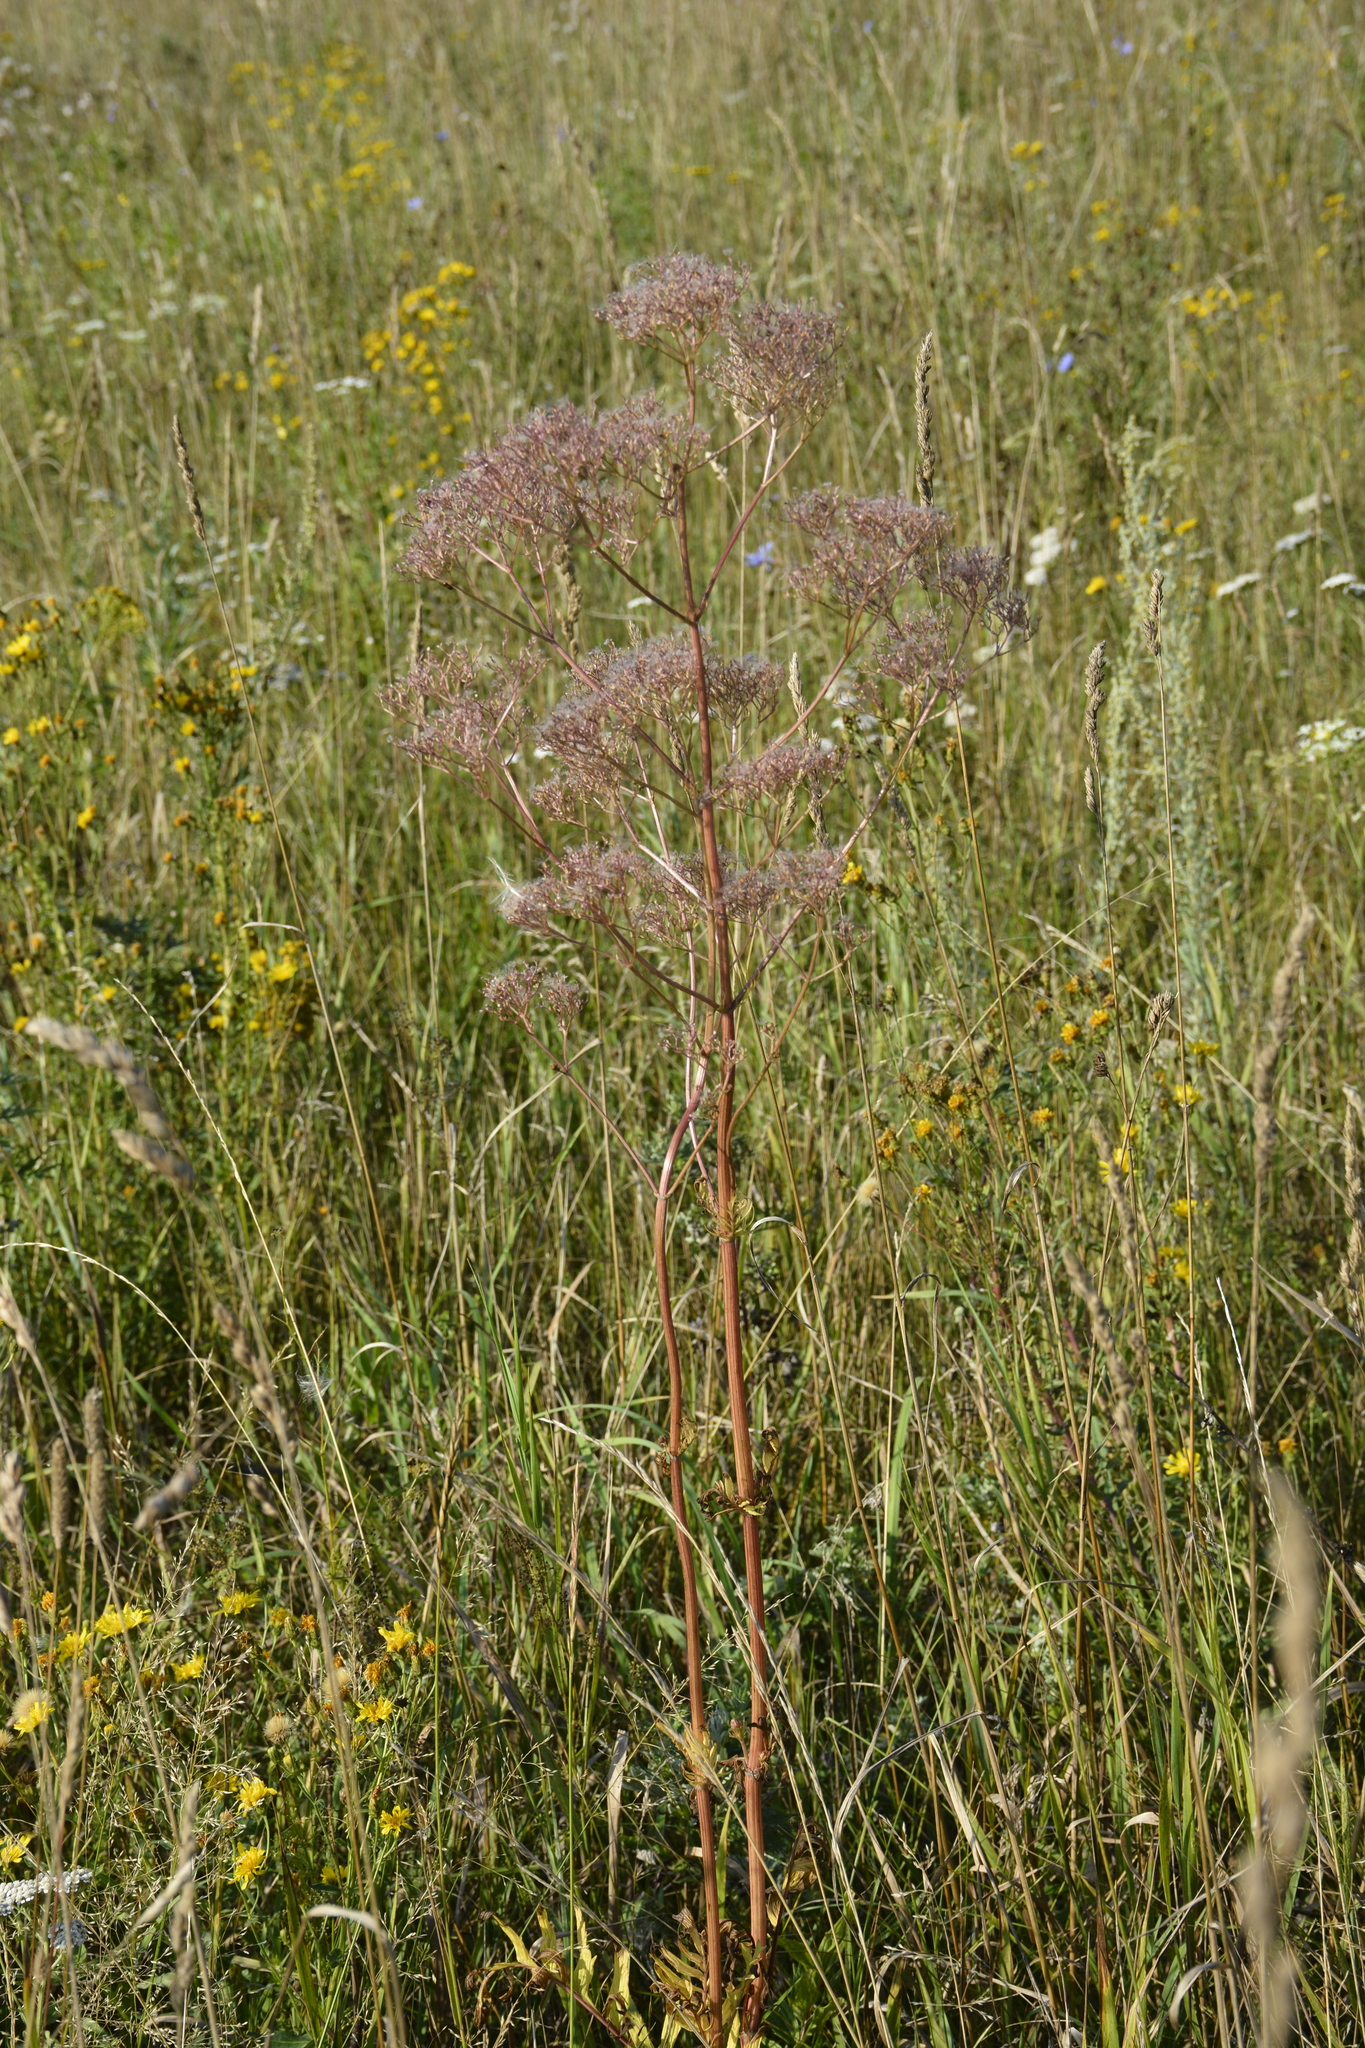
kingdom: Plantae
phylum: Tracheophyta
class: Magnoliopsida
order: Dipsacales
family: Caprifoliaceae
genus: Valeriana
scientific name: Valeriana officinalis
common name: Common valerian
